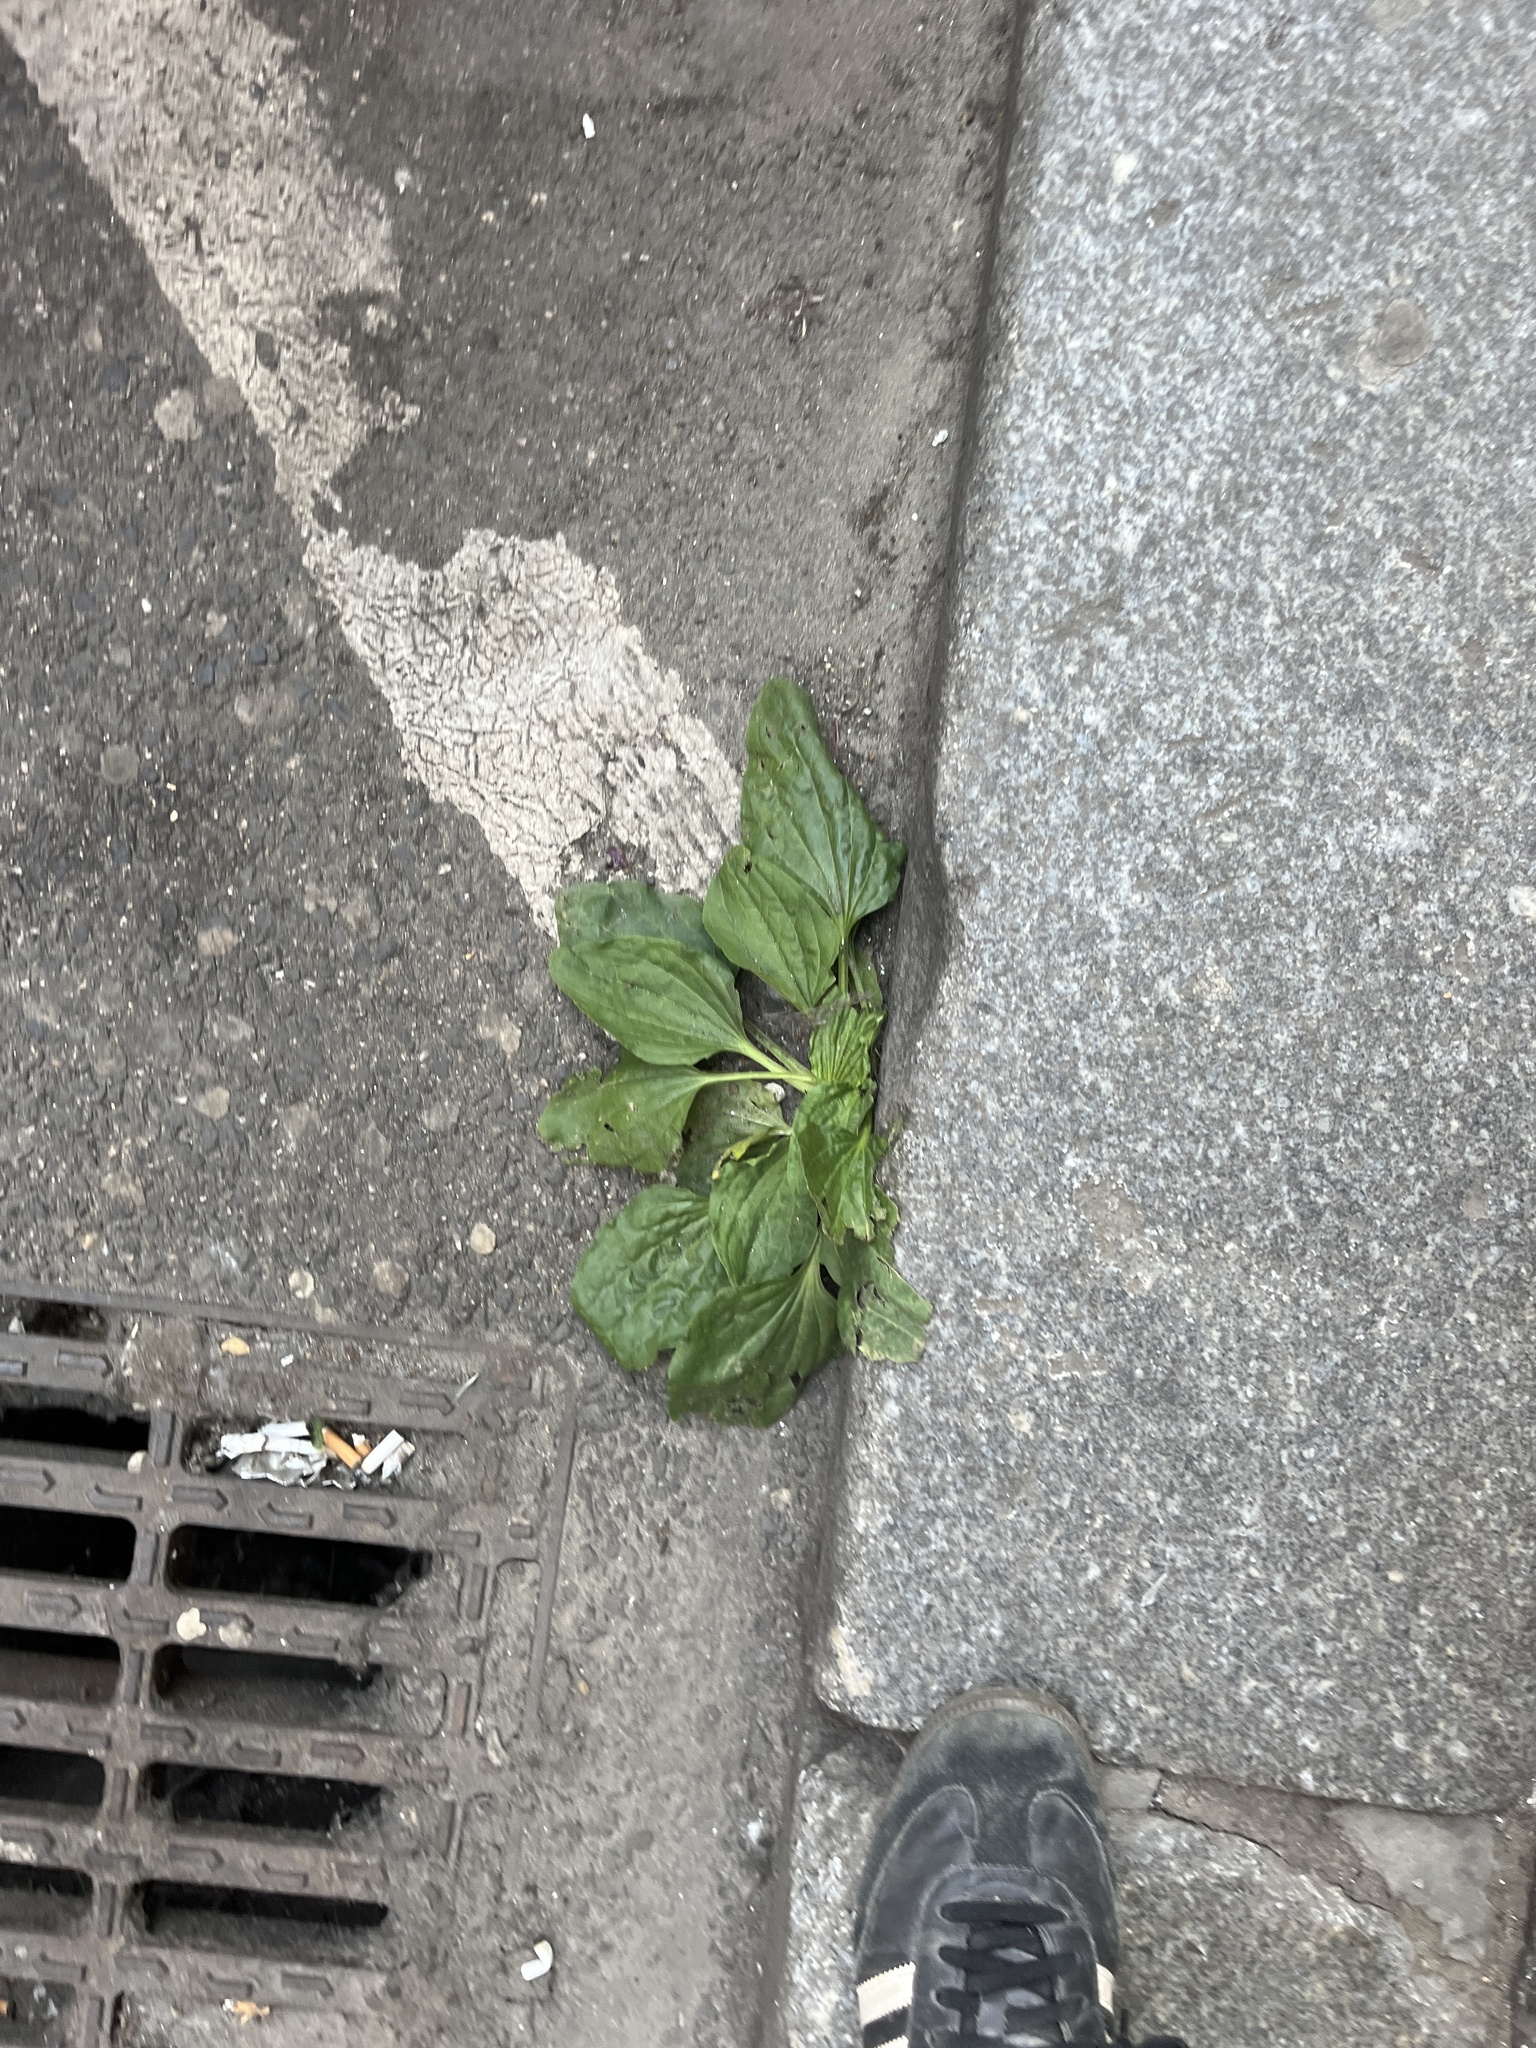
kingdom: Plantae
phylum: Tracheophyta
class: Magnoliopsida
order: Lamiales
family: Plantaginaceae
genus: Plantago
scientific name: Plantago major
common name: Common plantain
